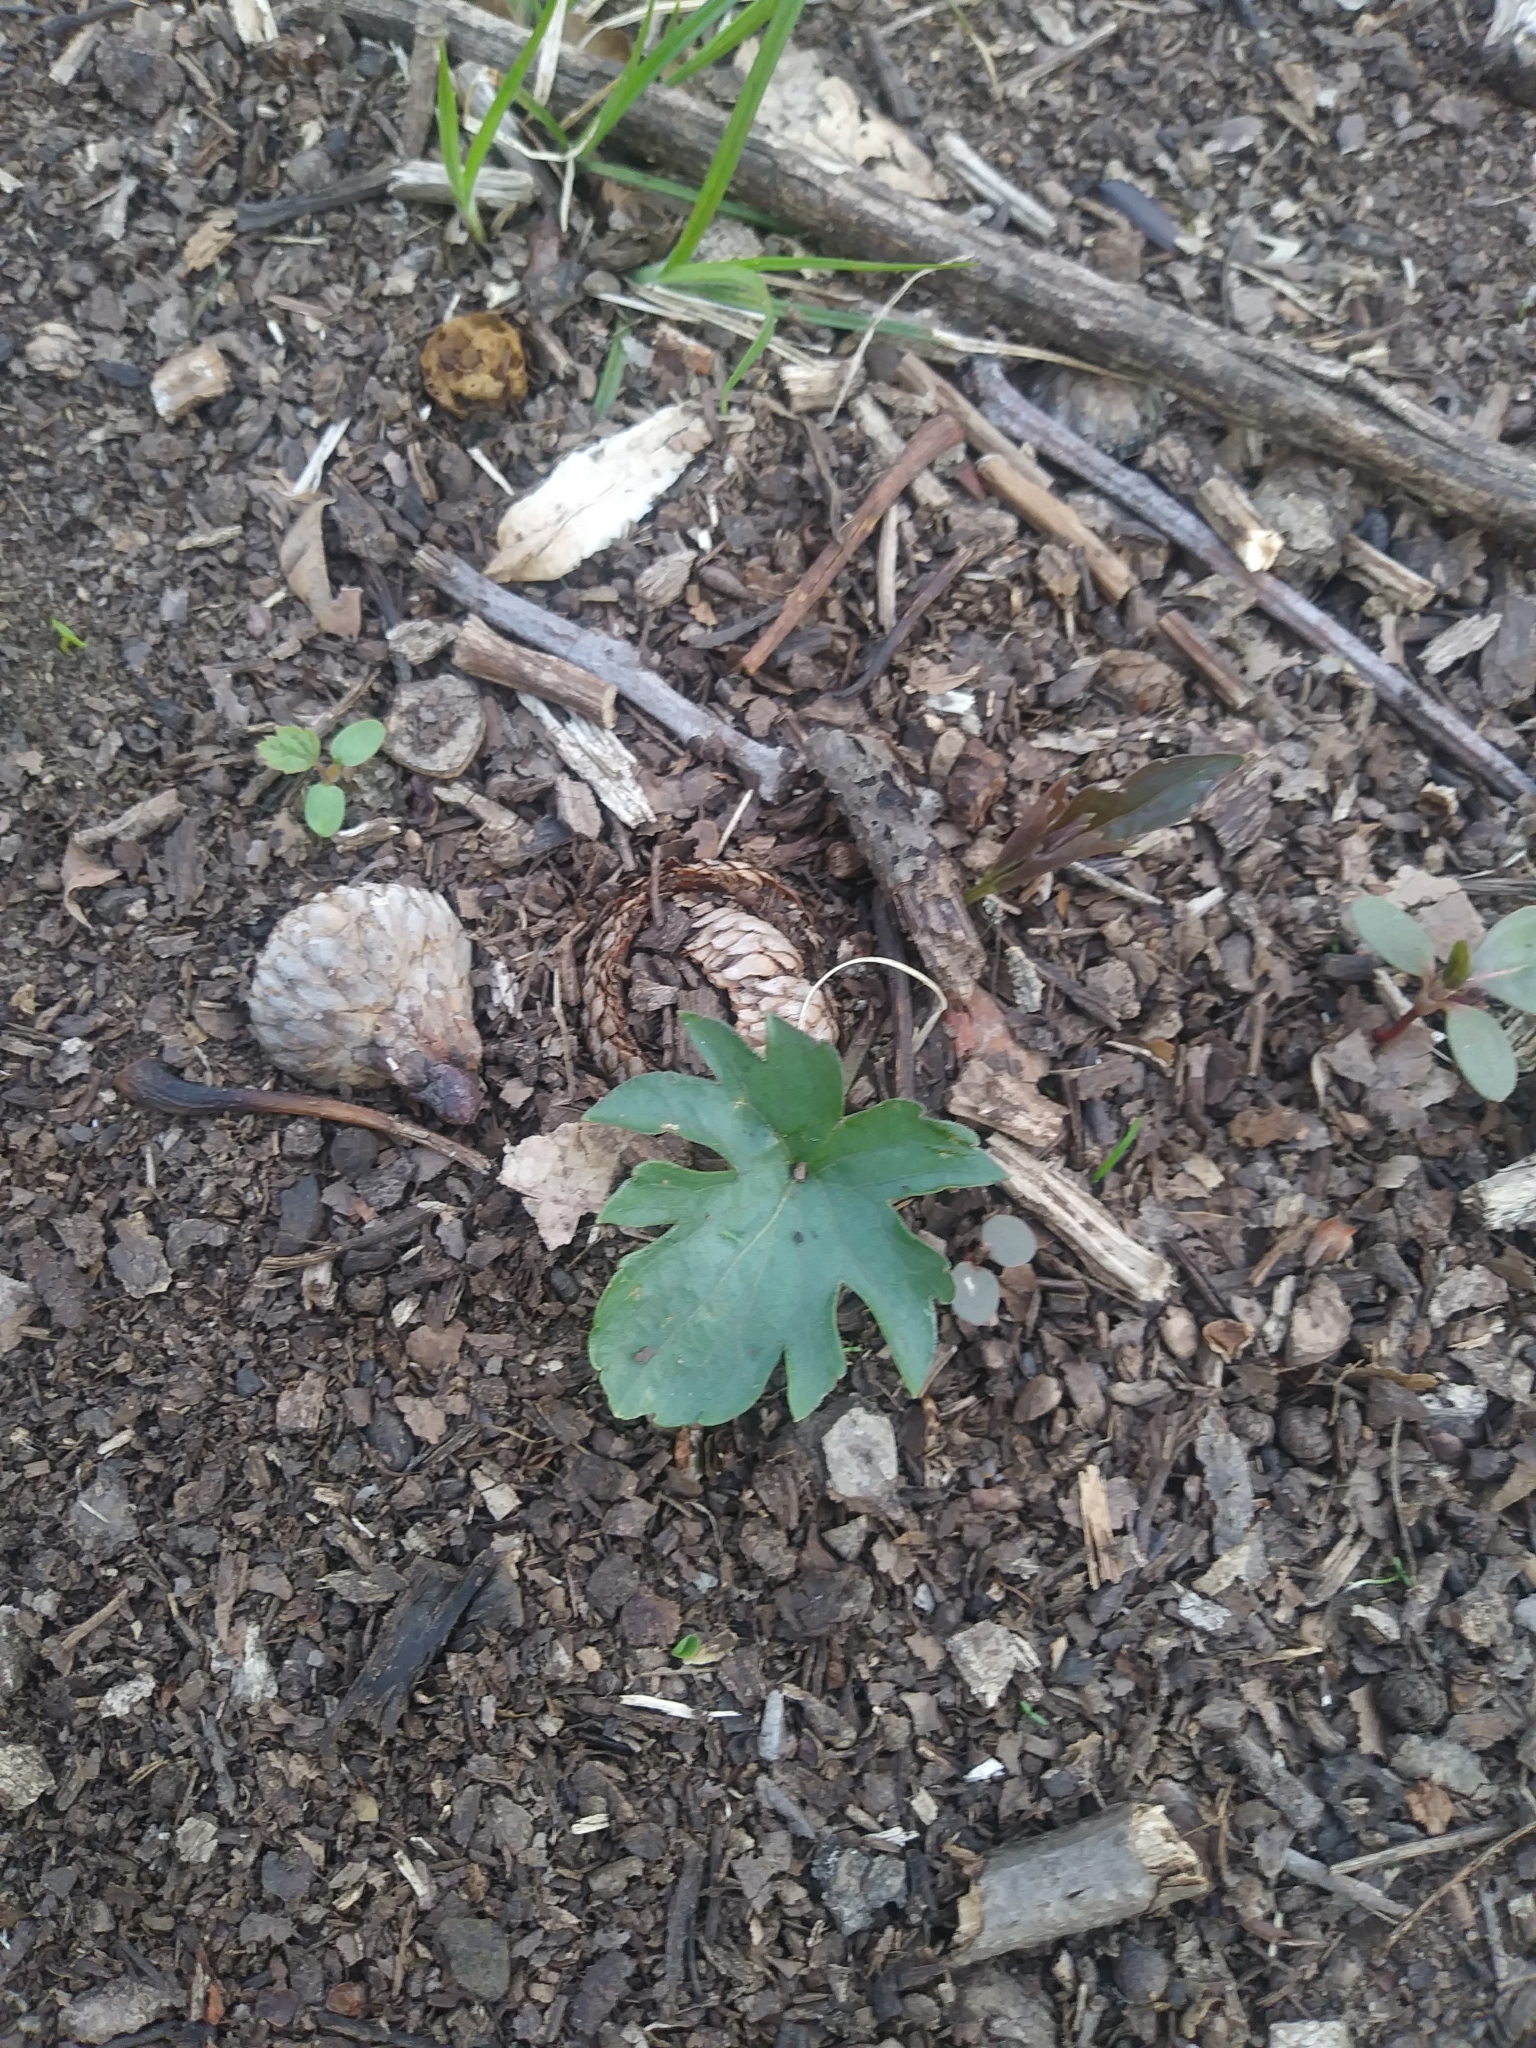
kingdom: Plantae
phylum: Tracheophyta
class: Magnoliopsida
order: Malpighiales
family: Violaceae
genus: Viola
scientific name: Viola palmata
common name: Early blue violet
